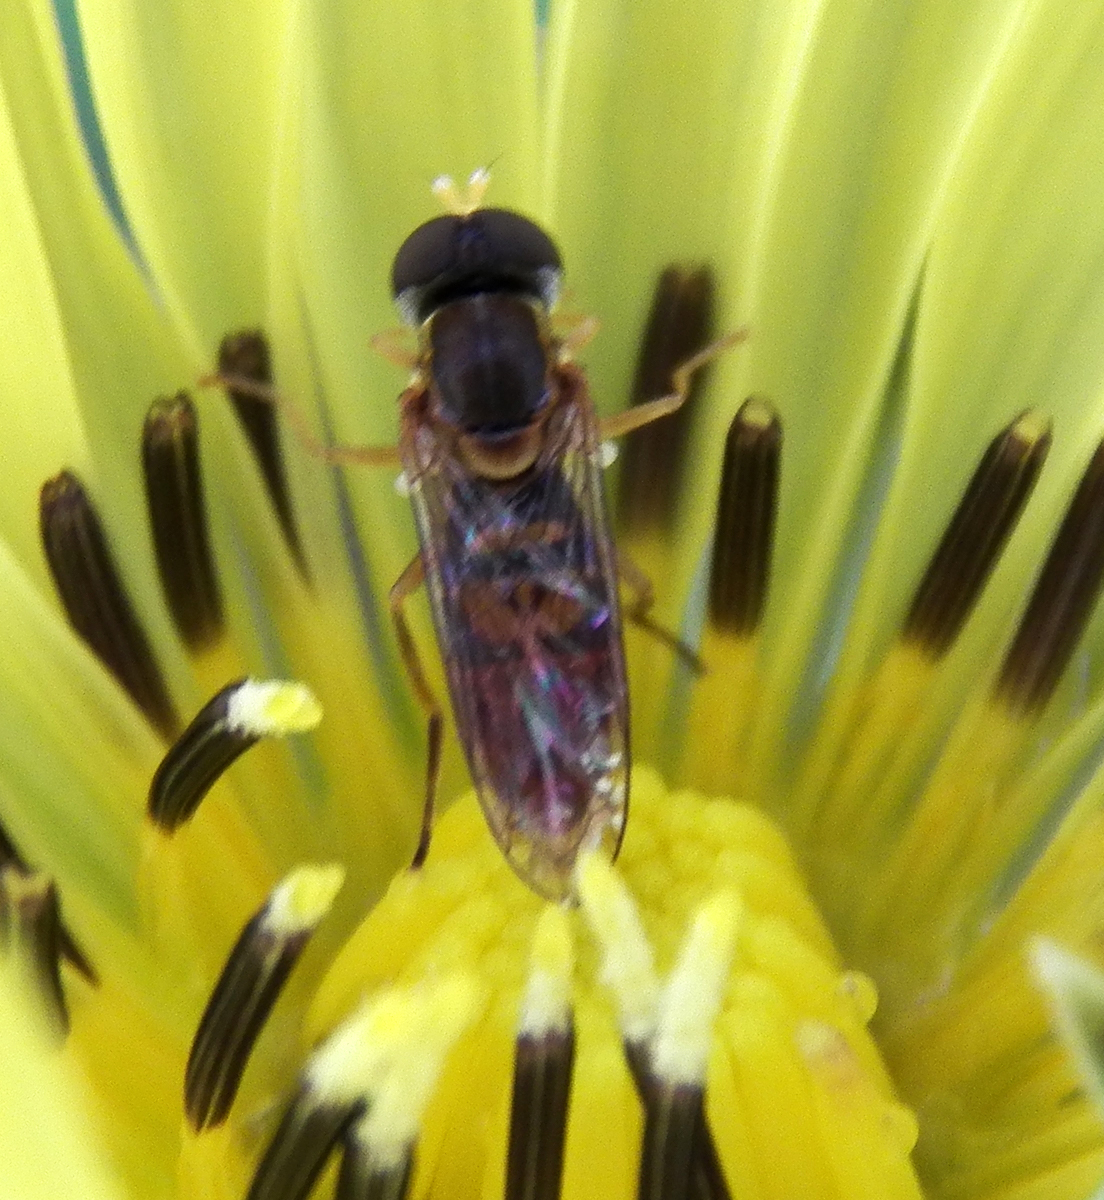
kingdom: Animalia
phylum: Arthropoda
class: Insecta
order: Diptera
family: Syrphidae
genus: Toxomerus
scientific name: Toxomerus marginatus
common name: Syrphid fly
